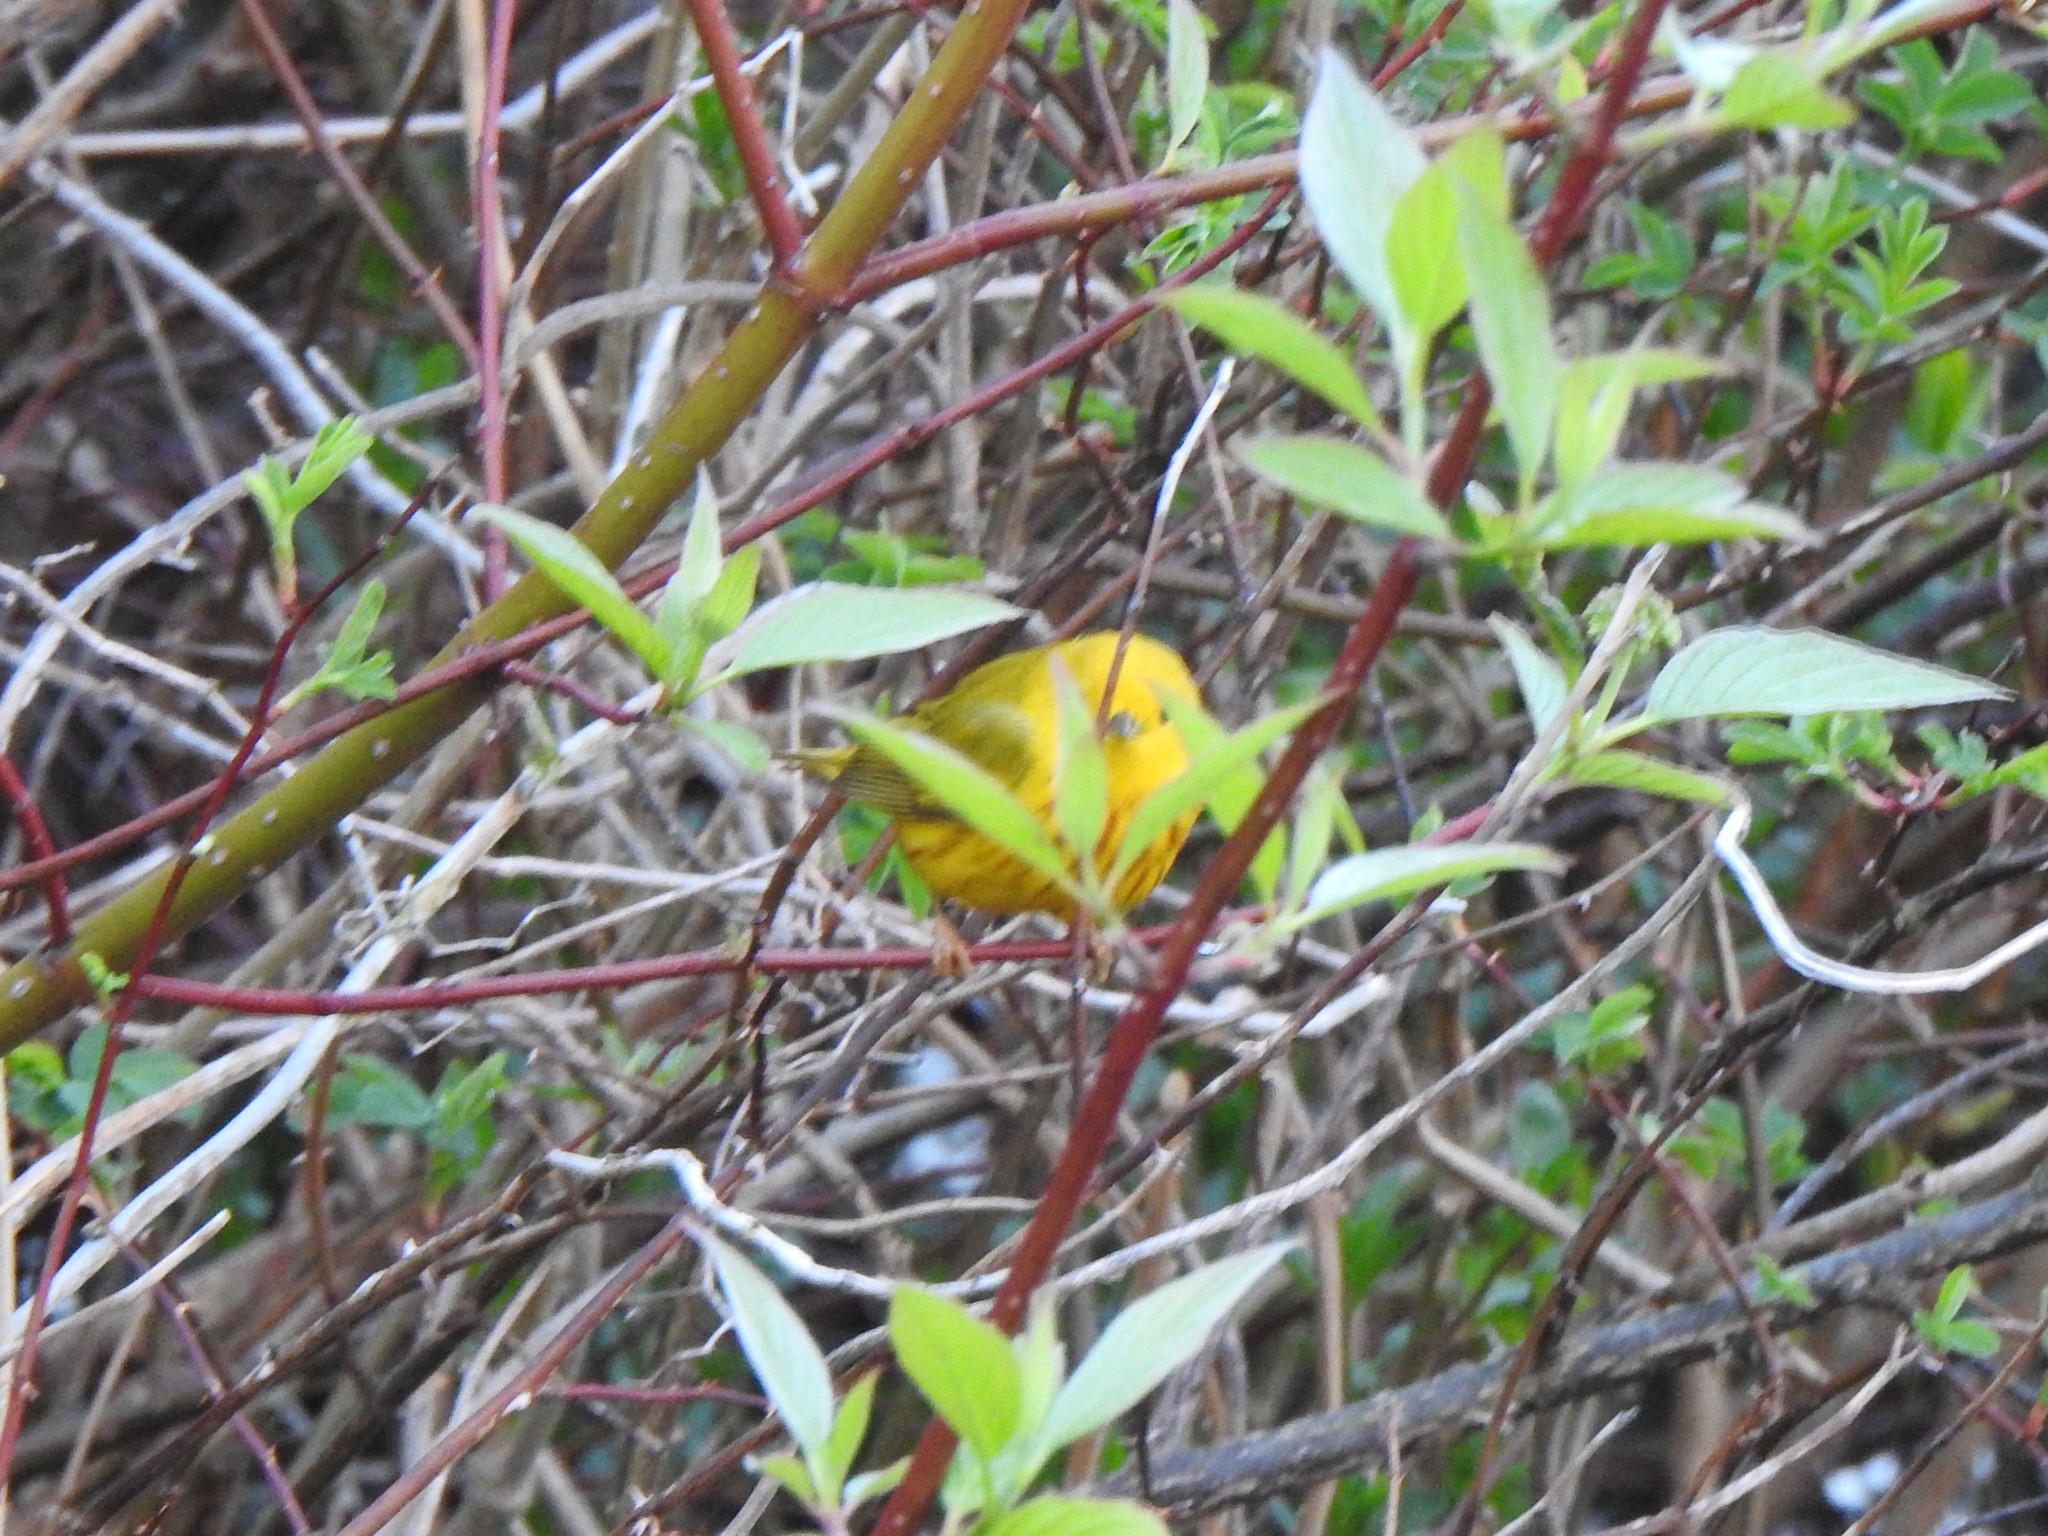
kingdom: Animalia
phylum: Chordata
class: Aves
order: Passeriformes
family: Parulidae
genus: Setophaga
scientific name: Setophaga petechia
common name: Yellow warbler
